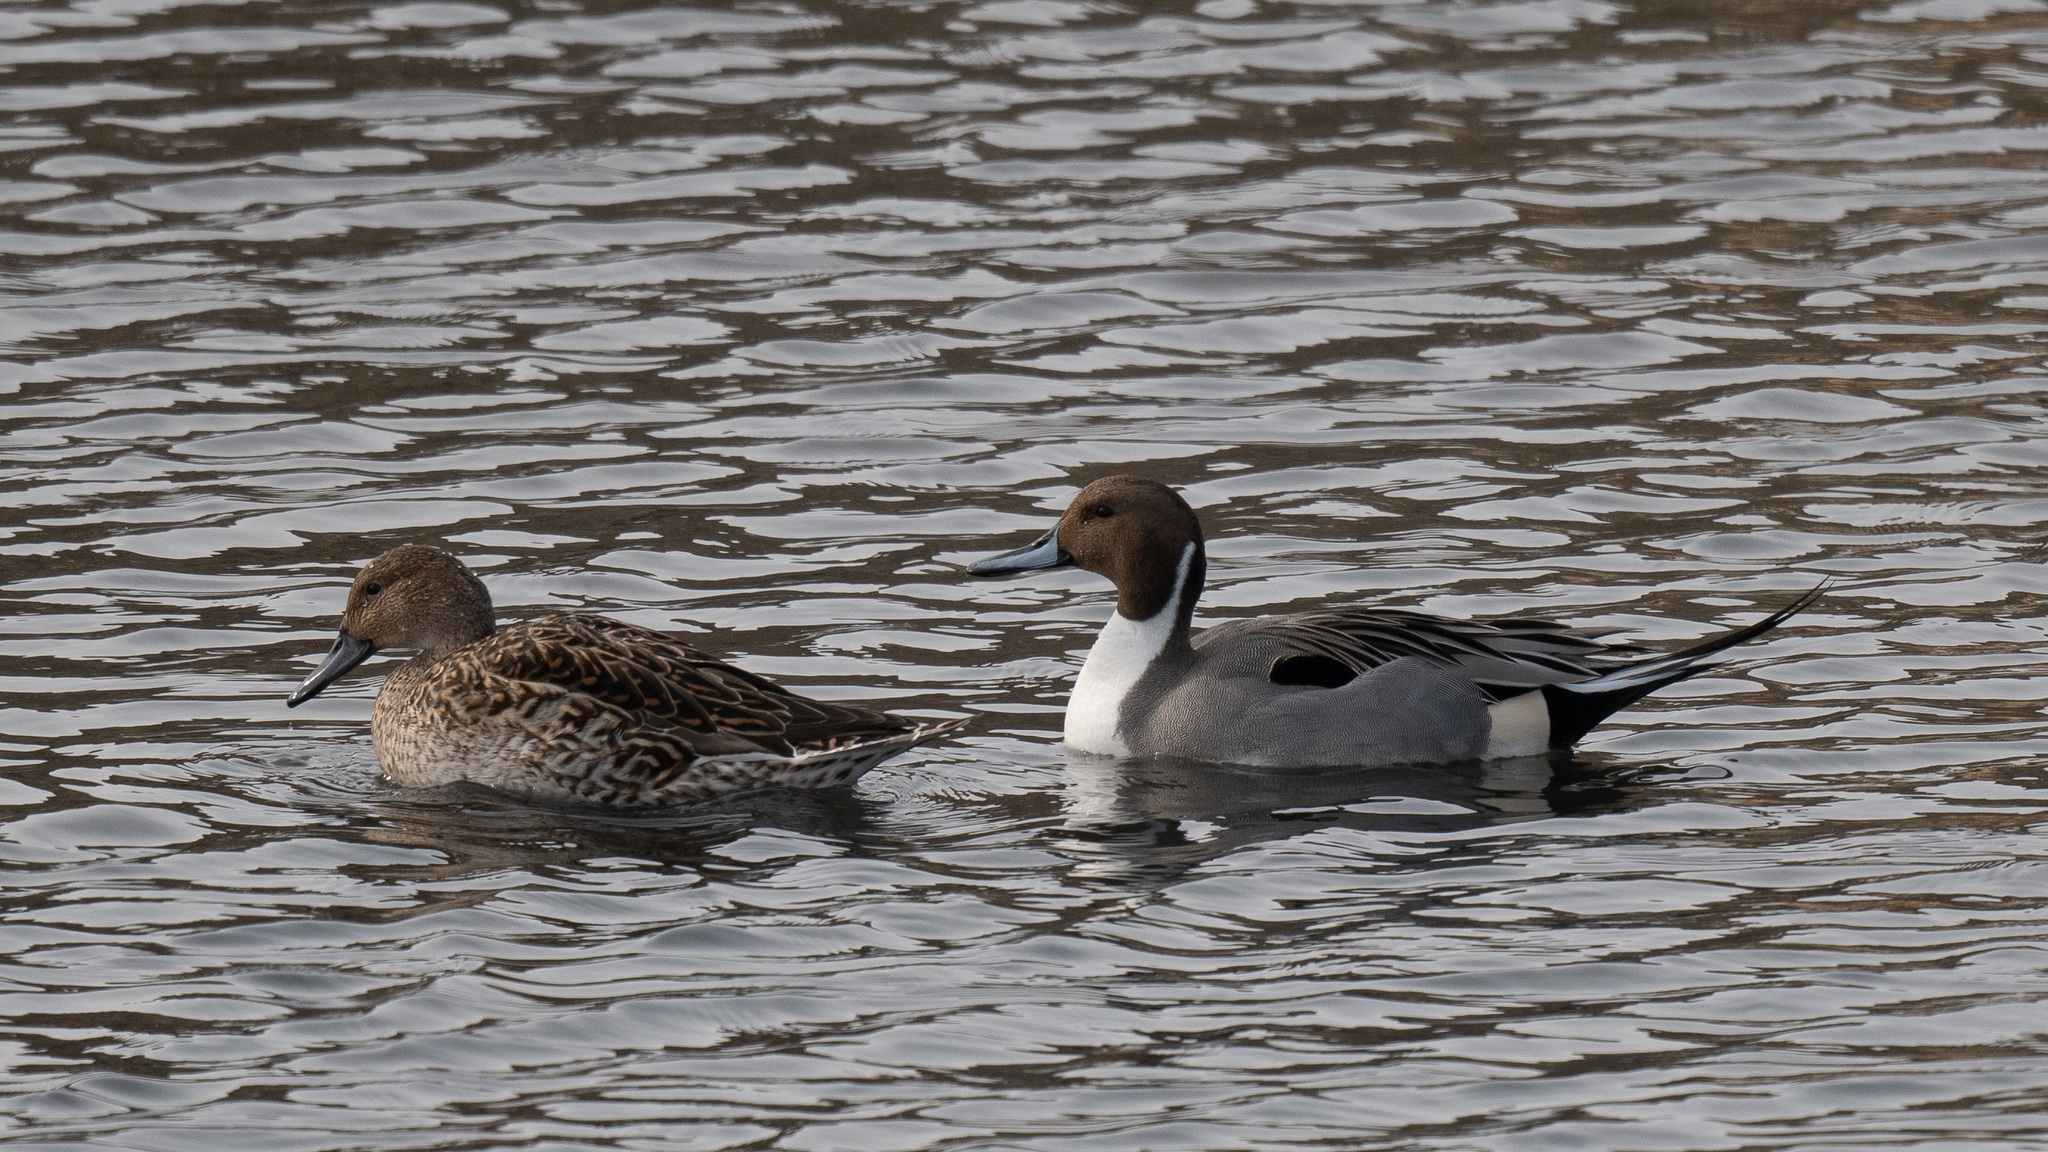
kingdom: Animalia
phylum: Chordata
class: Aves
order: Anseriformes
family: Anatidae
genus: Anas
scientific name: Anas acuta
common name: Northern pintail
